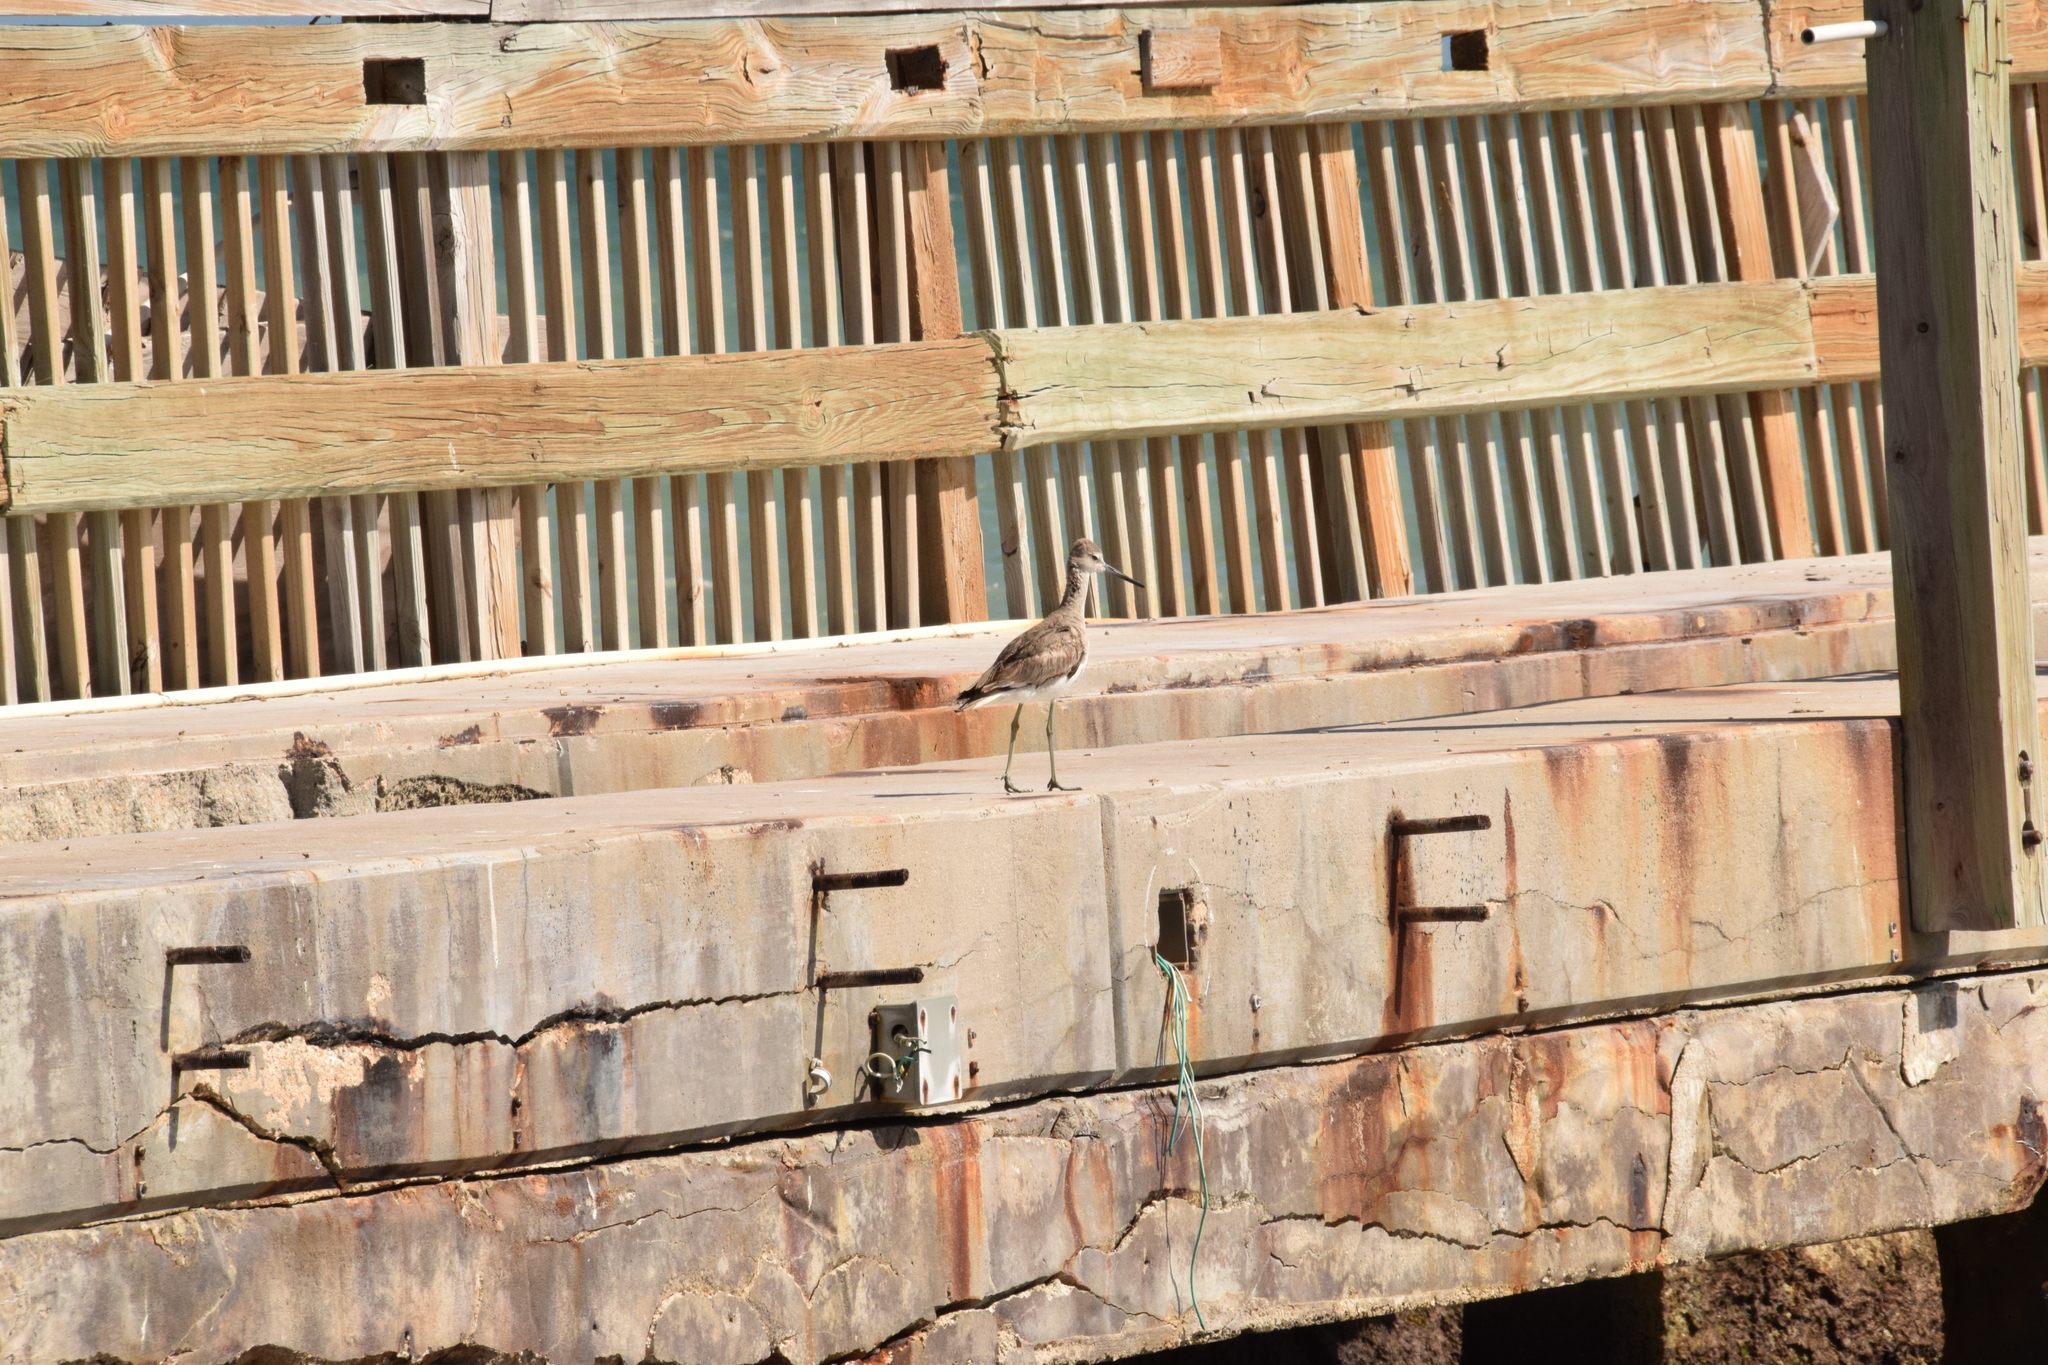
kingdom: Animalia
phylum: Chordata
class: Aves
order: Charadriiformes
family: Scolopacidae
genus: Tringa
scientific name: Tringa semipalmata
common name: Willet
